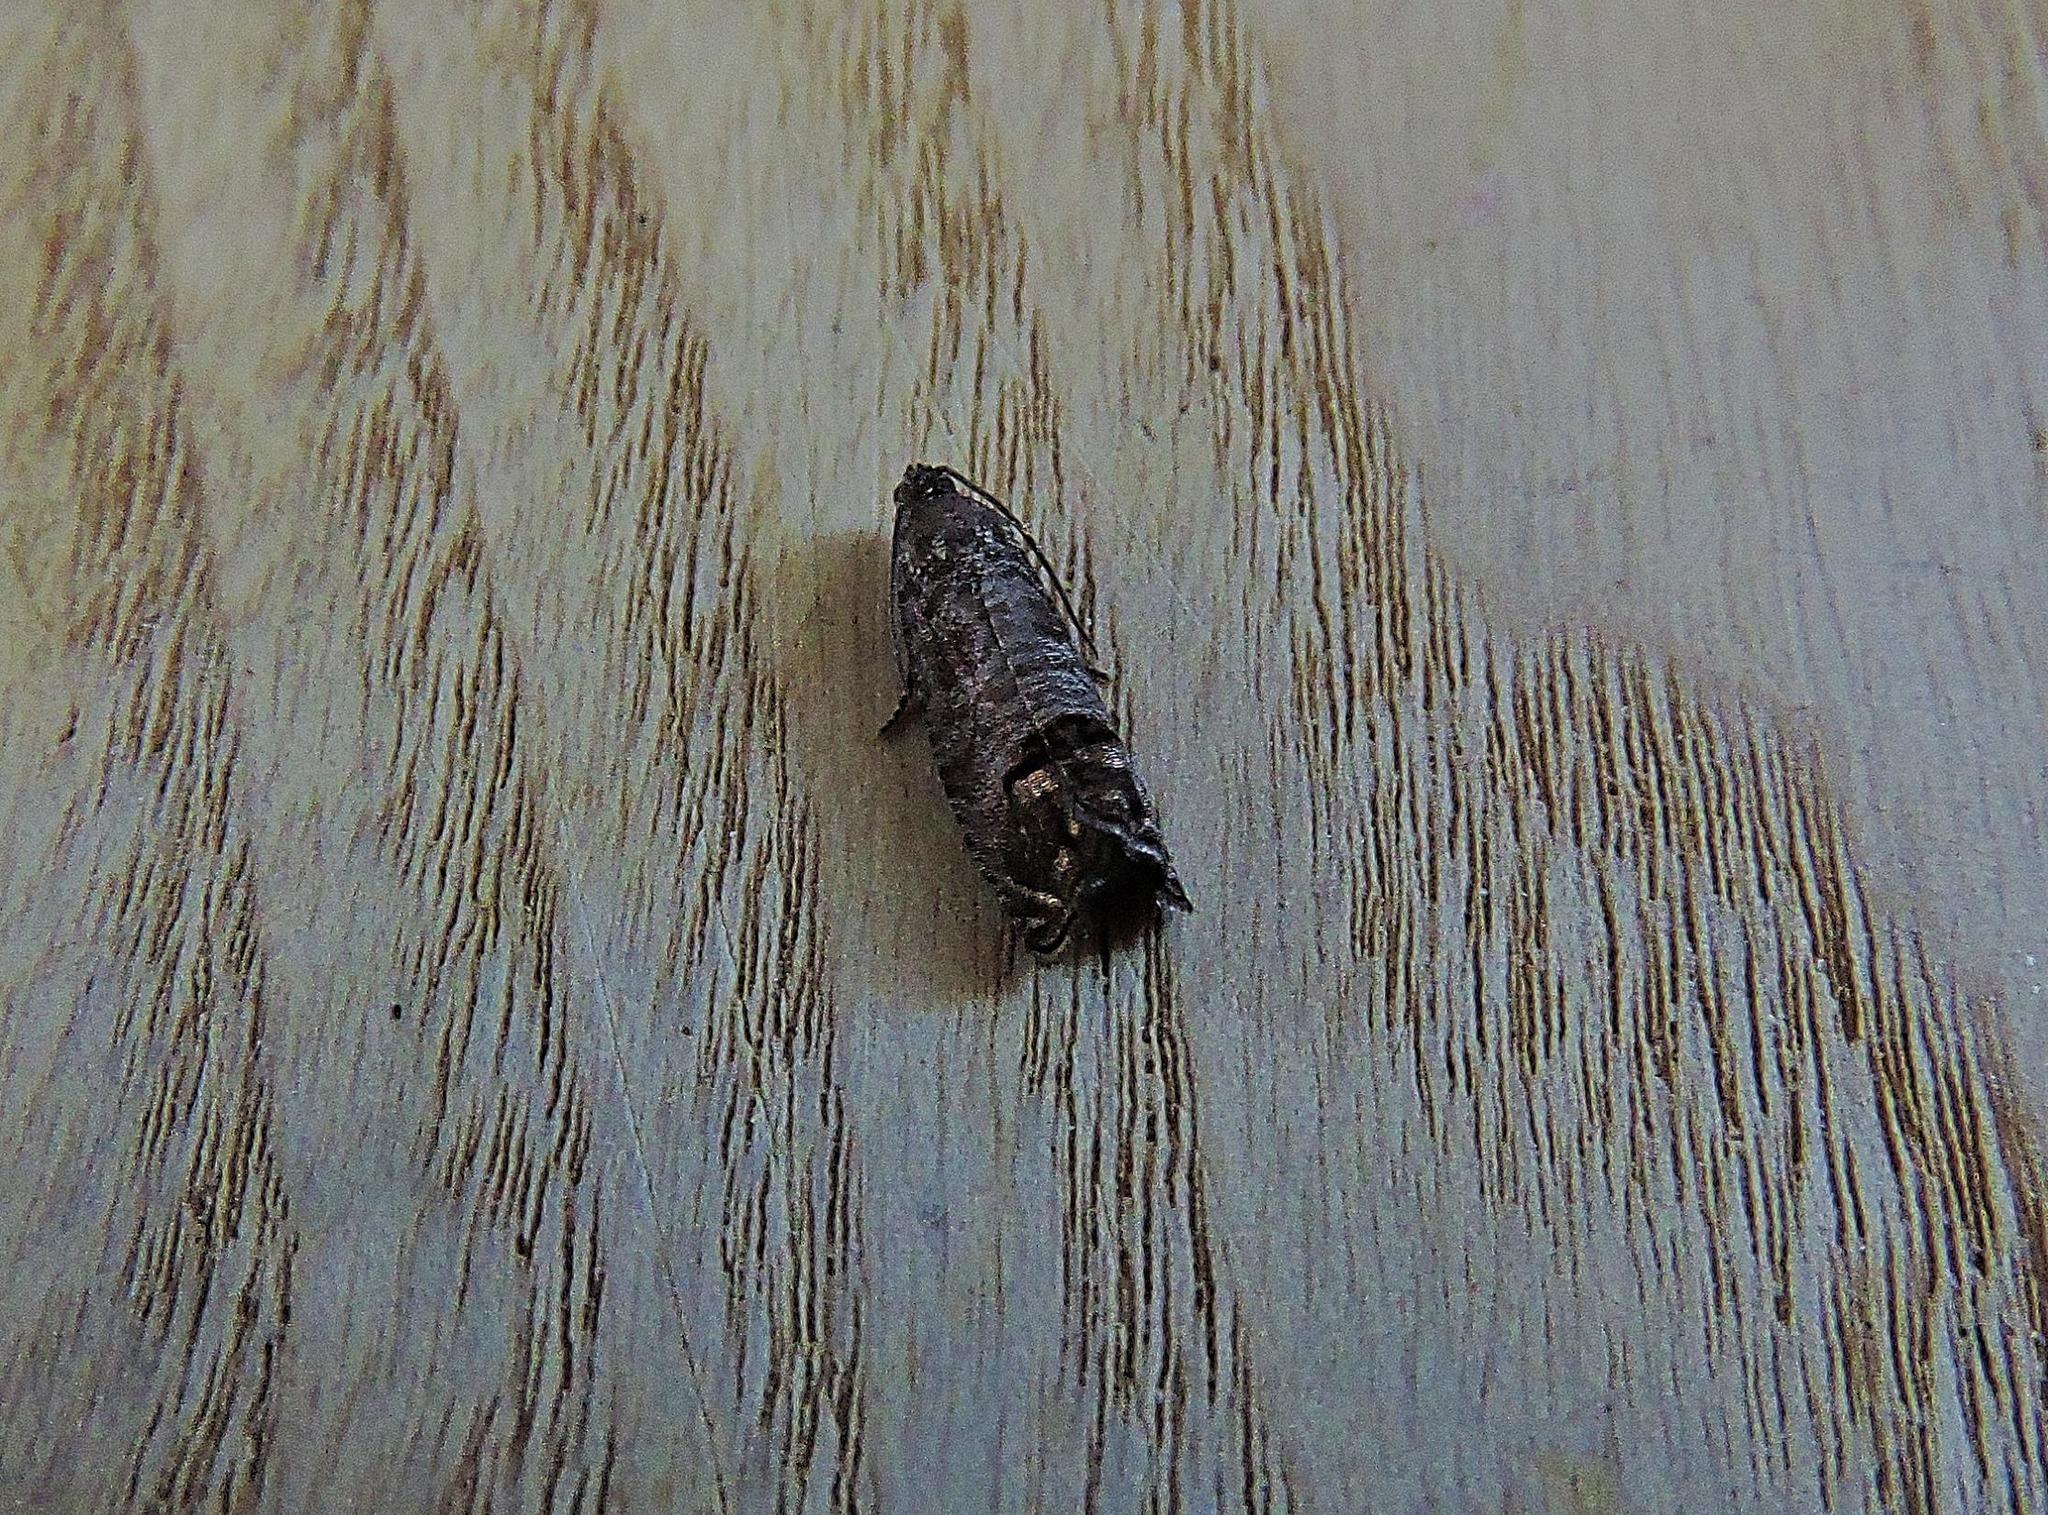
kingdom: Animalia
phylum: Arthropoda
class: Insecta
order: Lepidoptera
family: Tortricidae
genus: Cydia
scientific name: Cydia pomonella
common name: Codling moth
